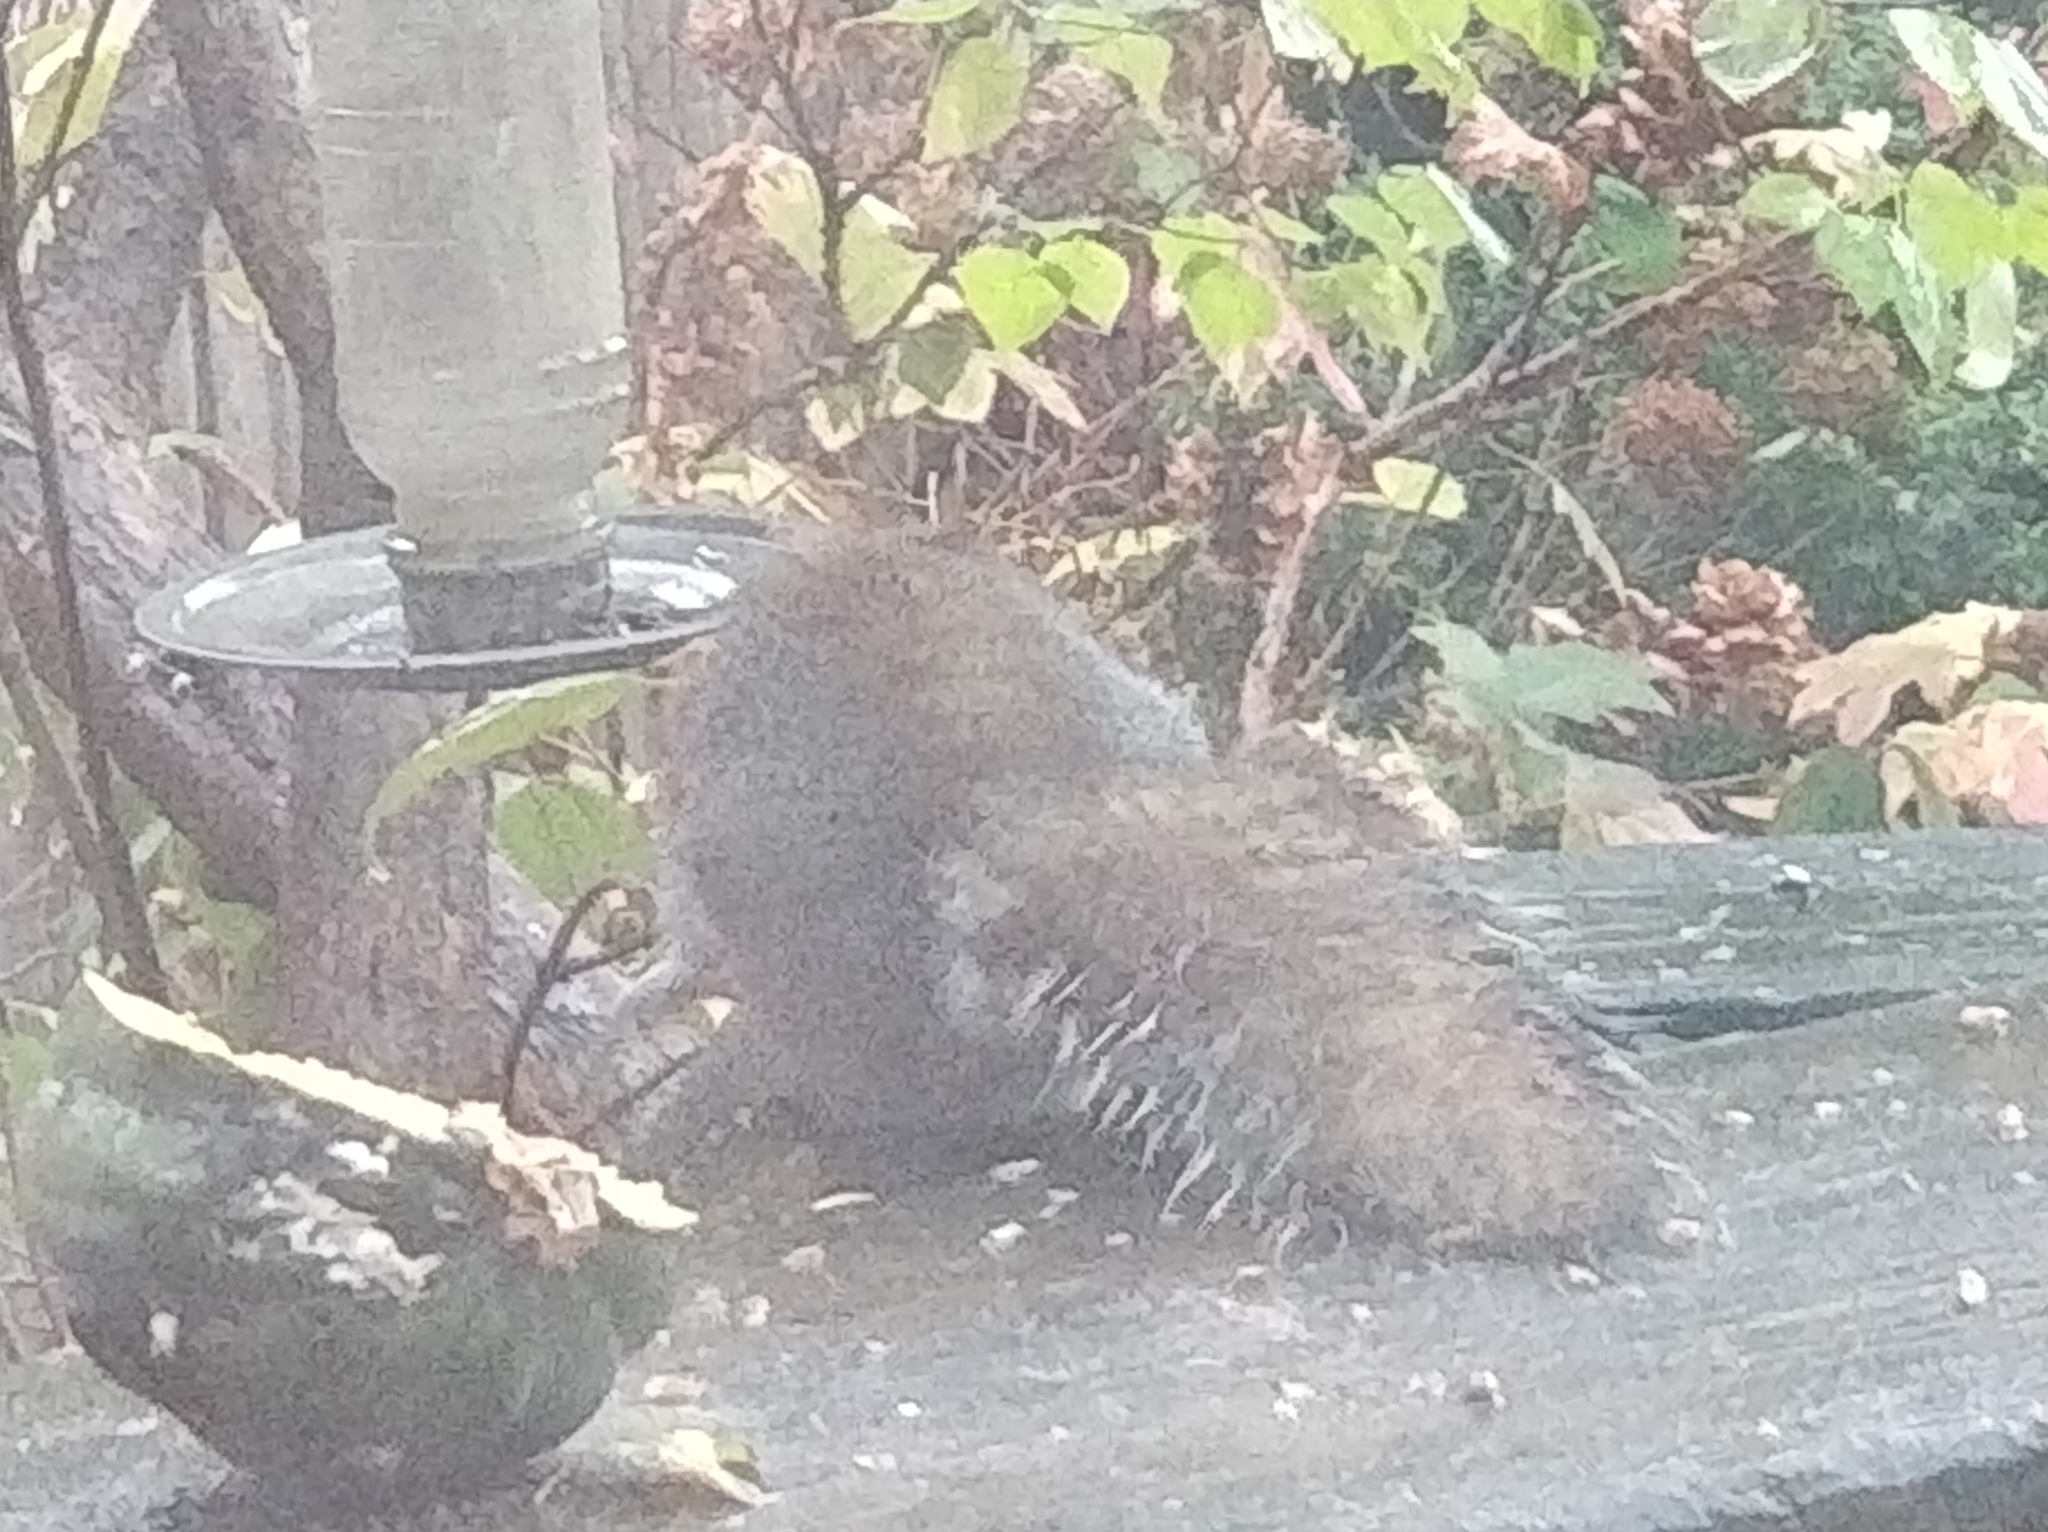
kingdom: Animalia
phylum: Chordata
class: Mammalia
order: Rodentia
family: Sciuridae
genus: Sciurus
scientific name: Sciurus carolinensis
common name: Eastern gray squirrel
